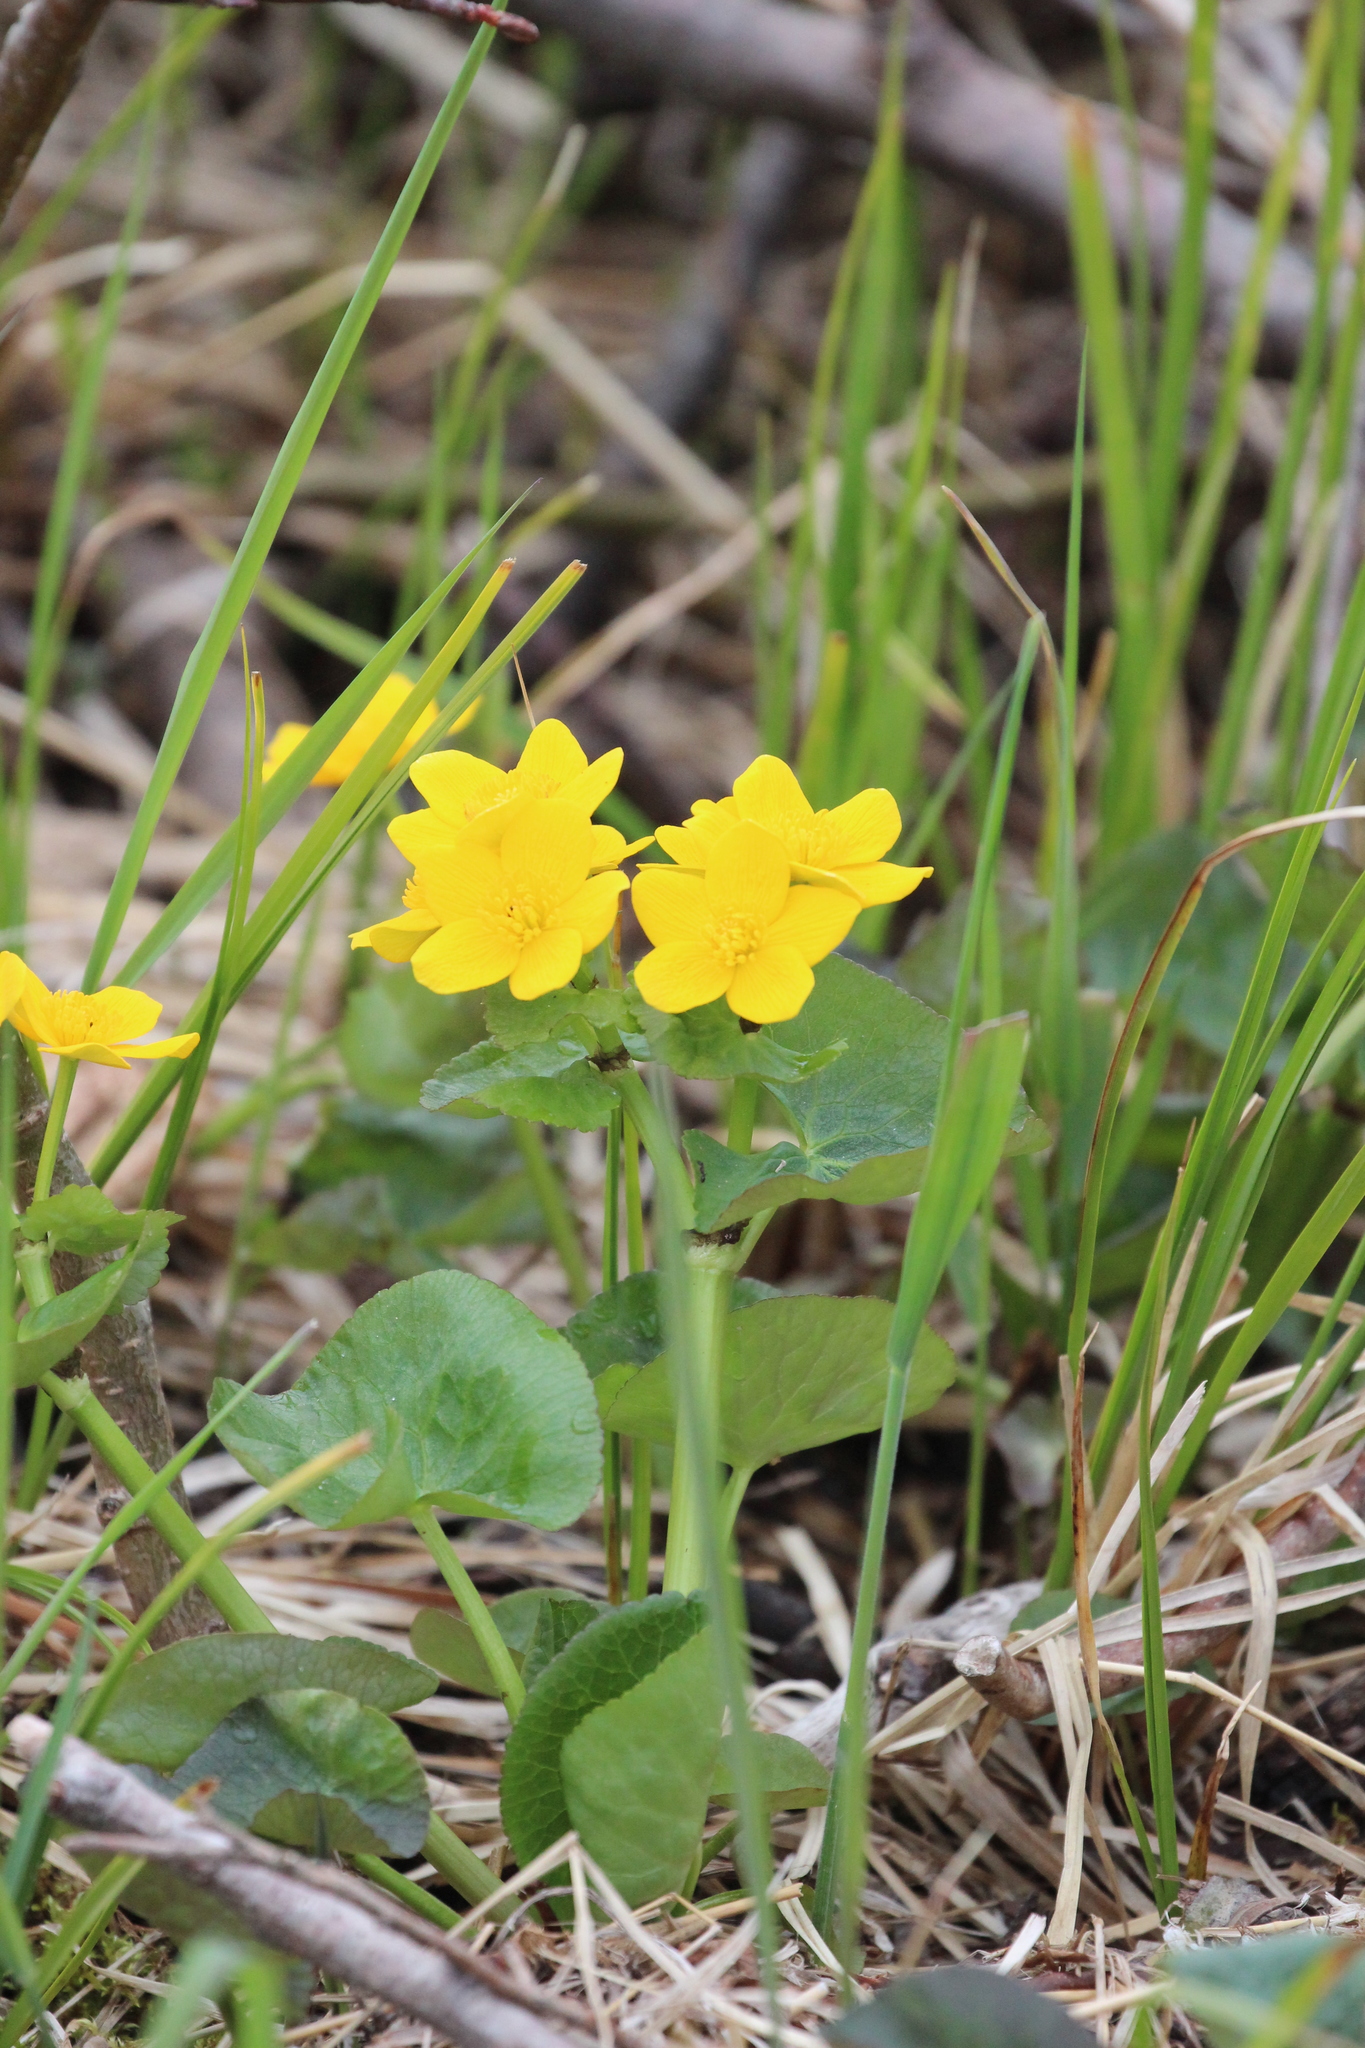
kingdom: Plantae
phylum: Tracheophyta
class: Magnoliopsida
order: Ranunculales
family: Ranunculaceae
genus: Caltha
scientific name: Caltha palustris
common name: Marsh marigold
